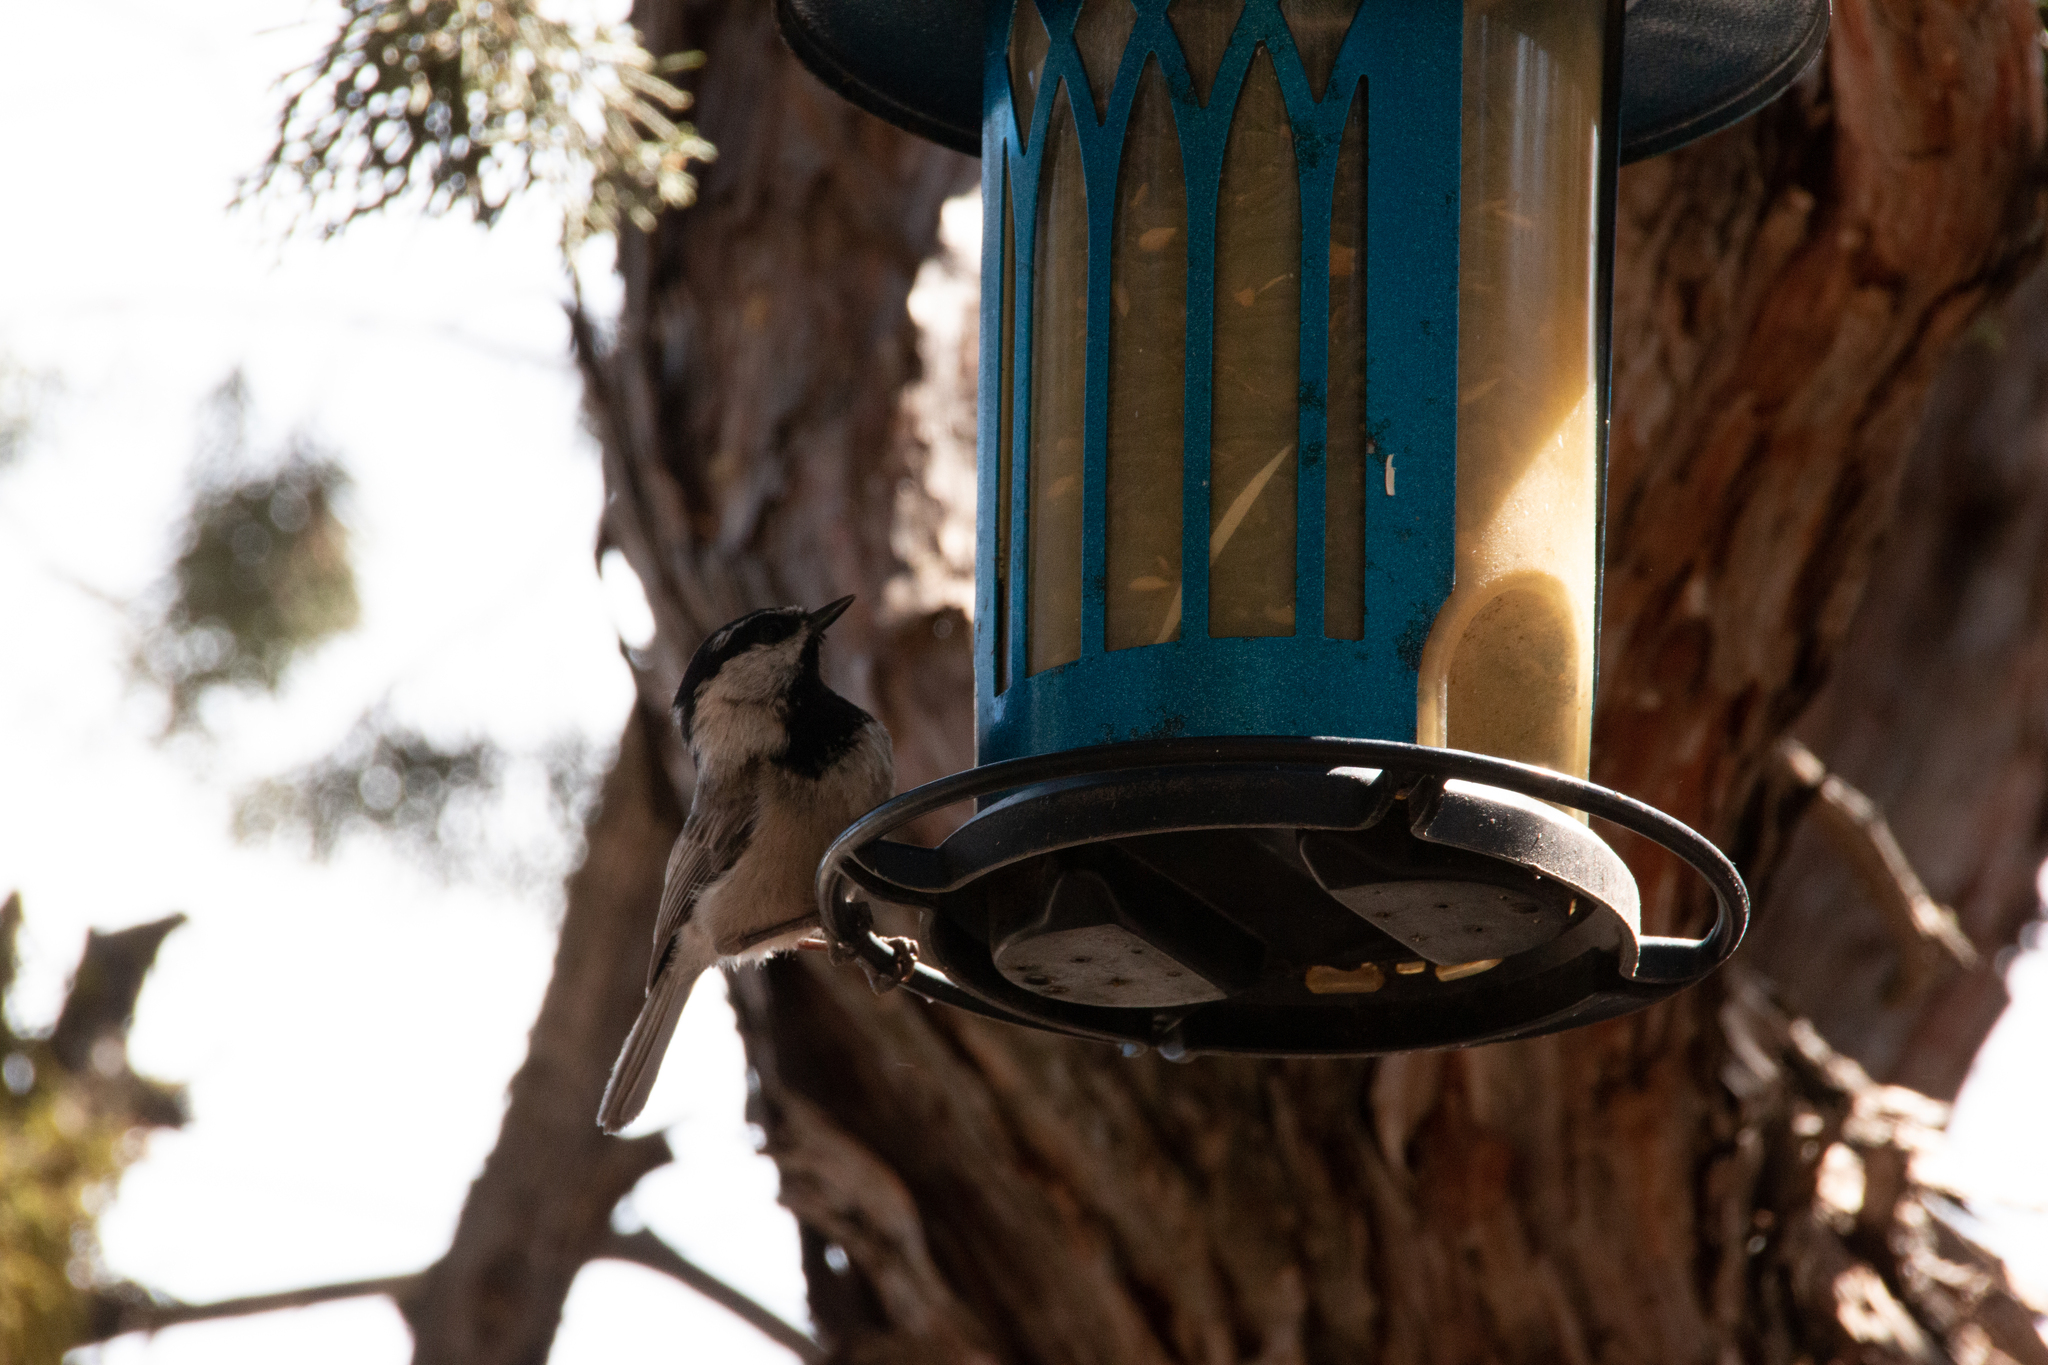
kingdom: Animalia
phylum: Chordata
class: Aves
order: Passeriformes
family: Paridae
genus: Poecile
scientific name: Poecile gambeli
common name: Mountain chickadee
